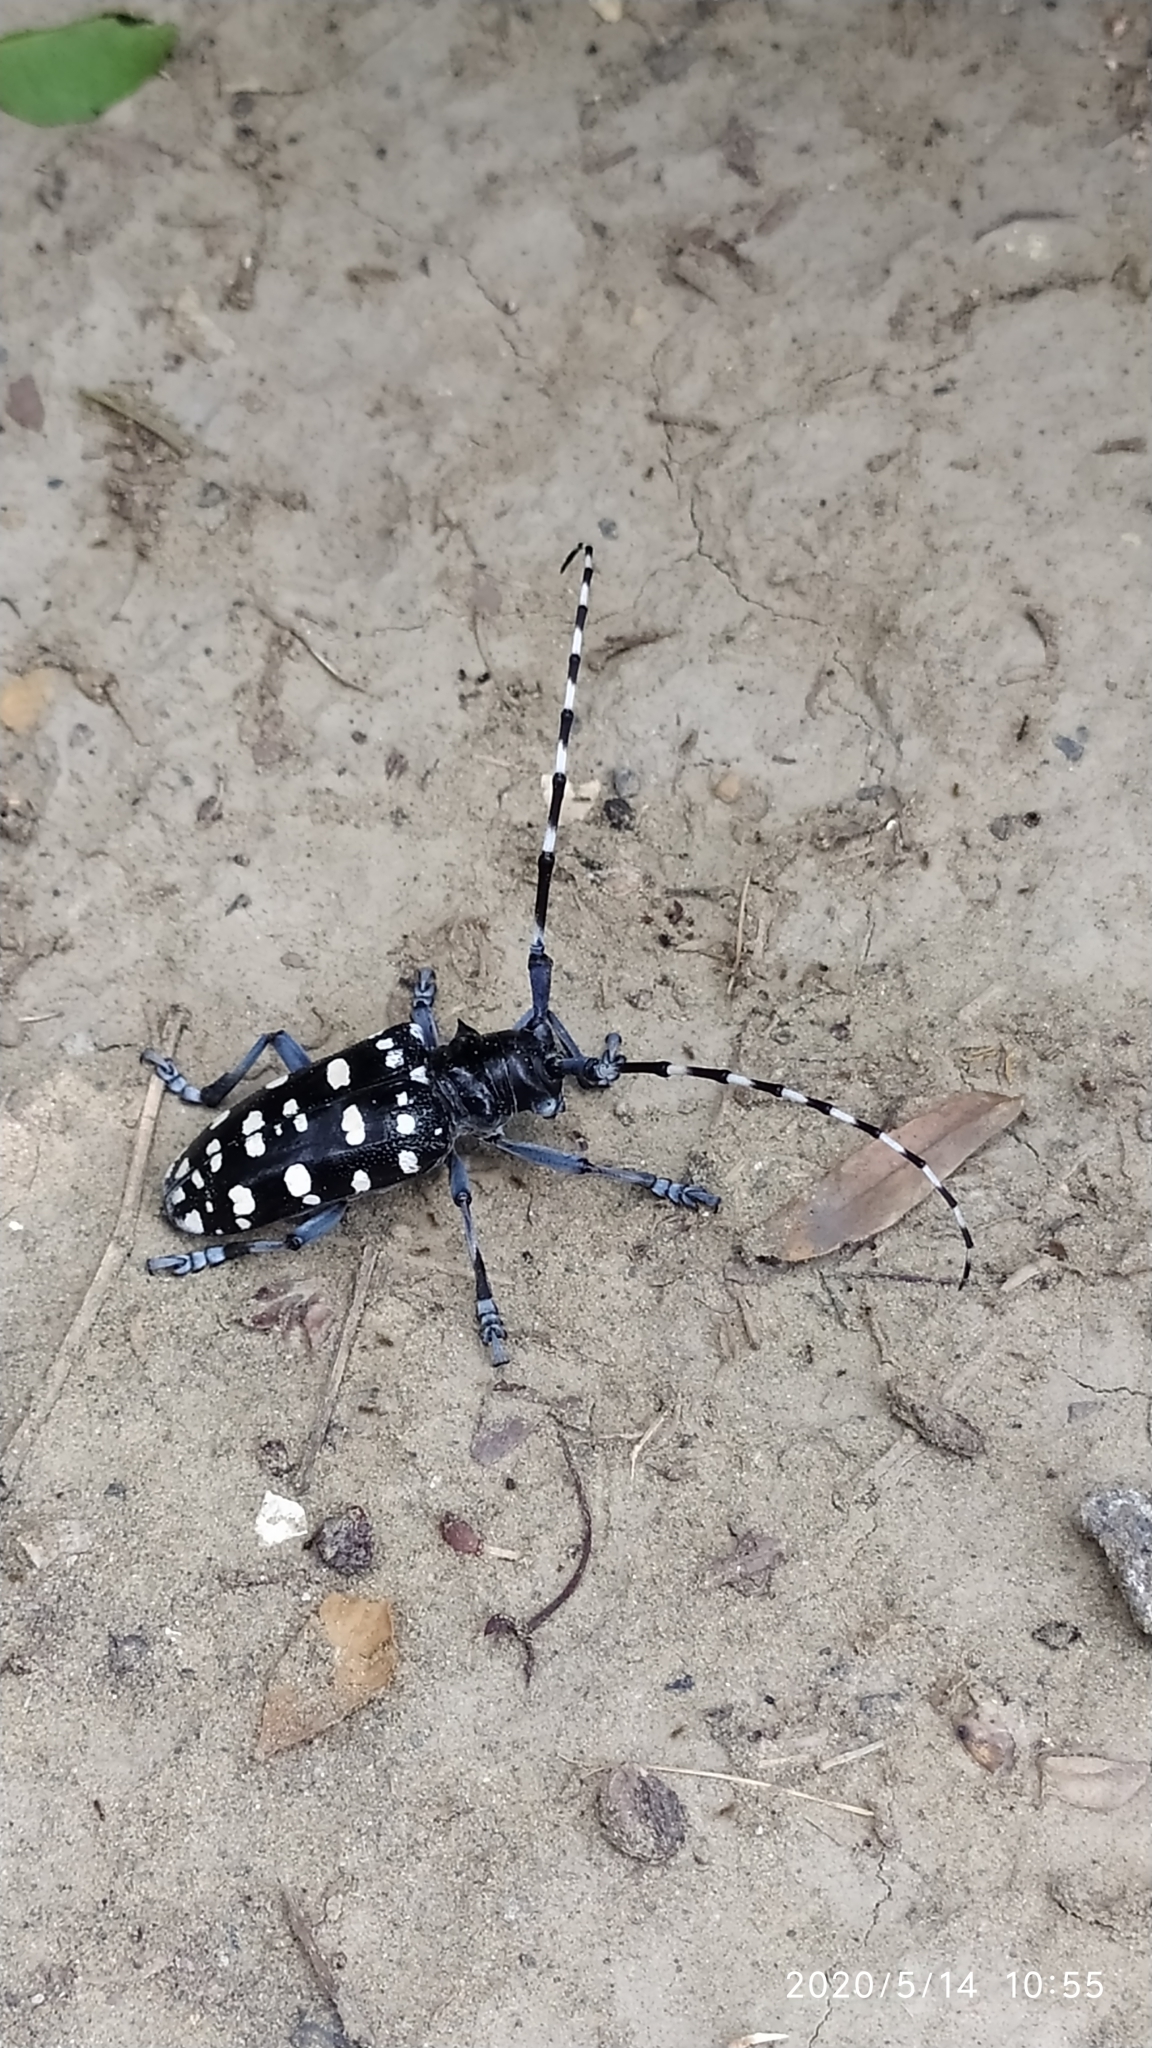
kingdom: Animalia
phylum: Arthropoda
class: Insecta
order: Coleoptera
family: Cerambycidae
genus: Anoplophora
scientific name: Anoplophora macularia
